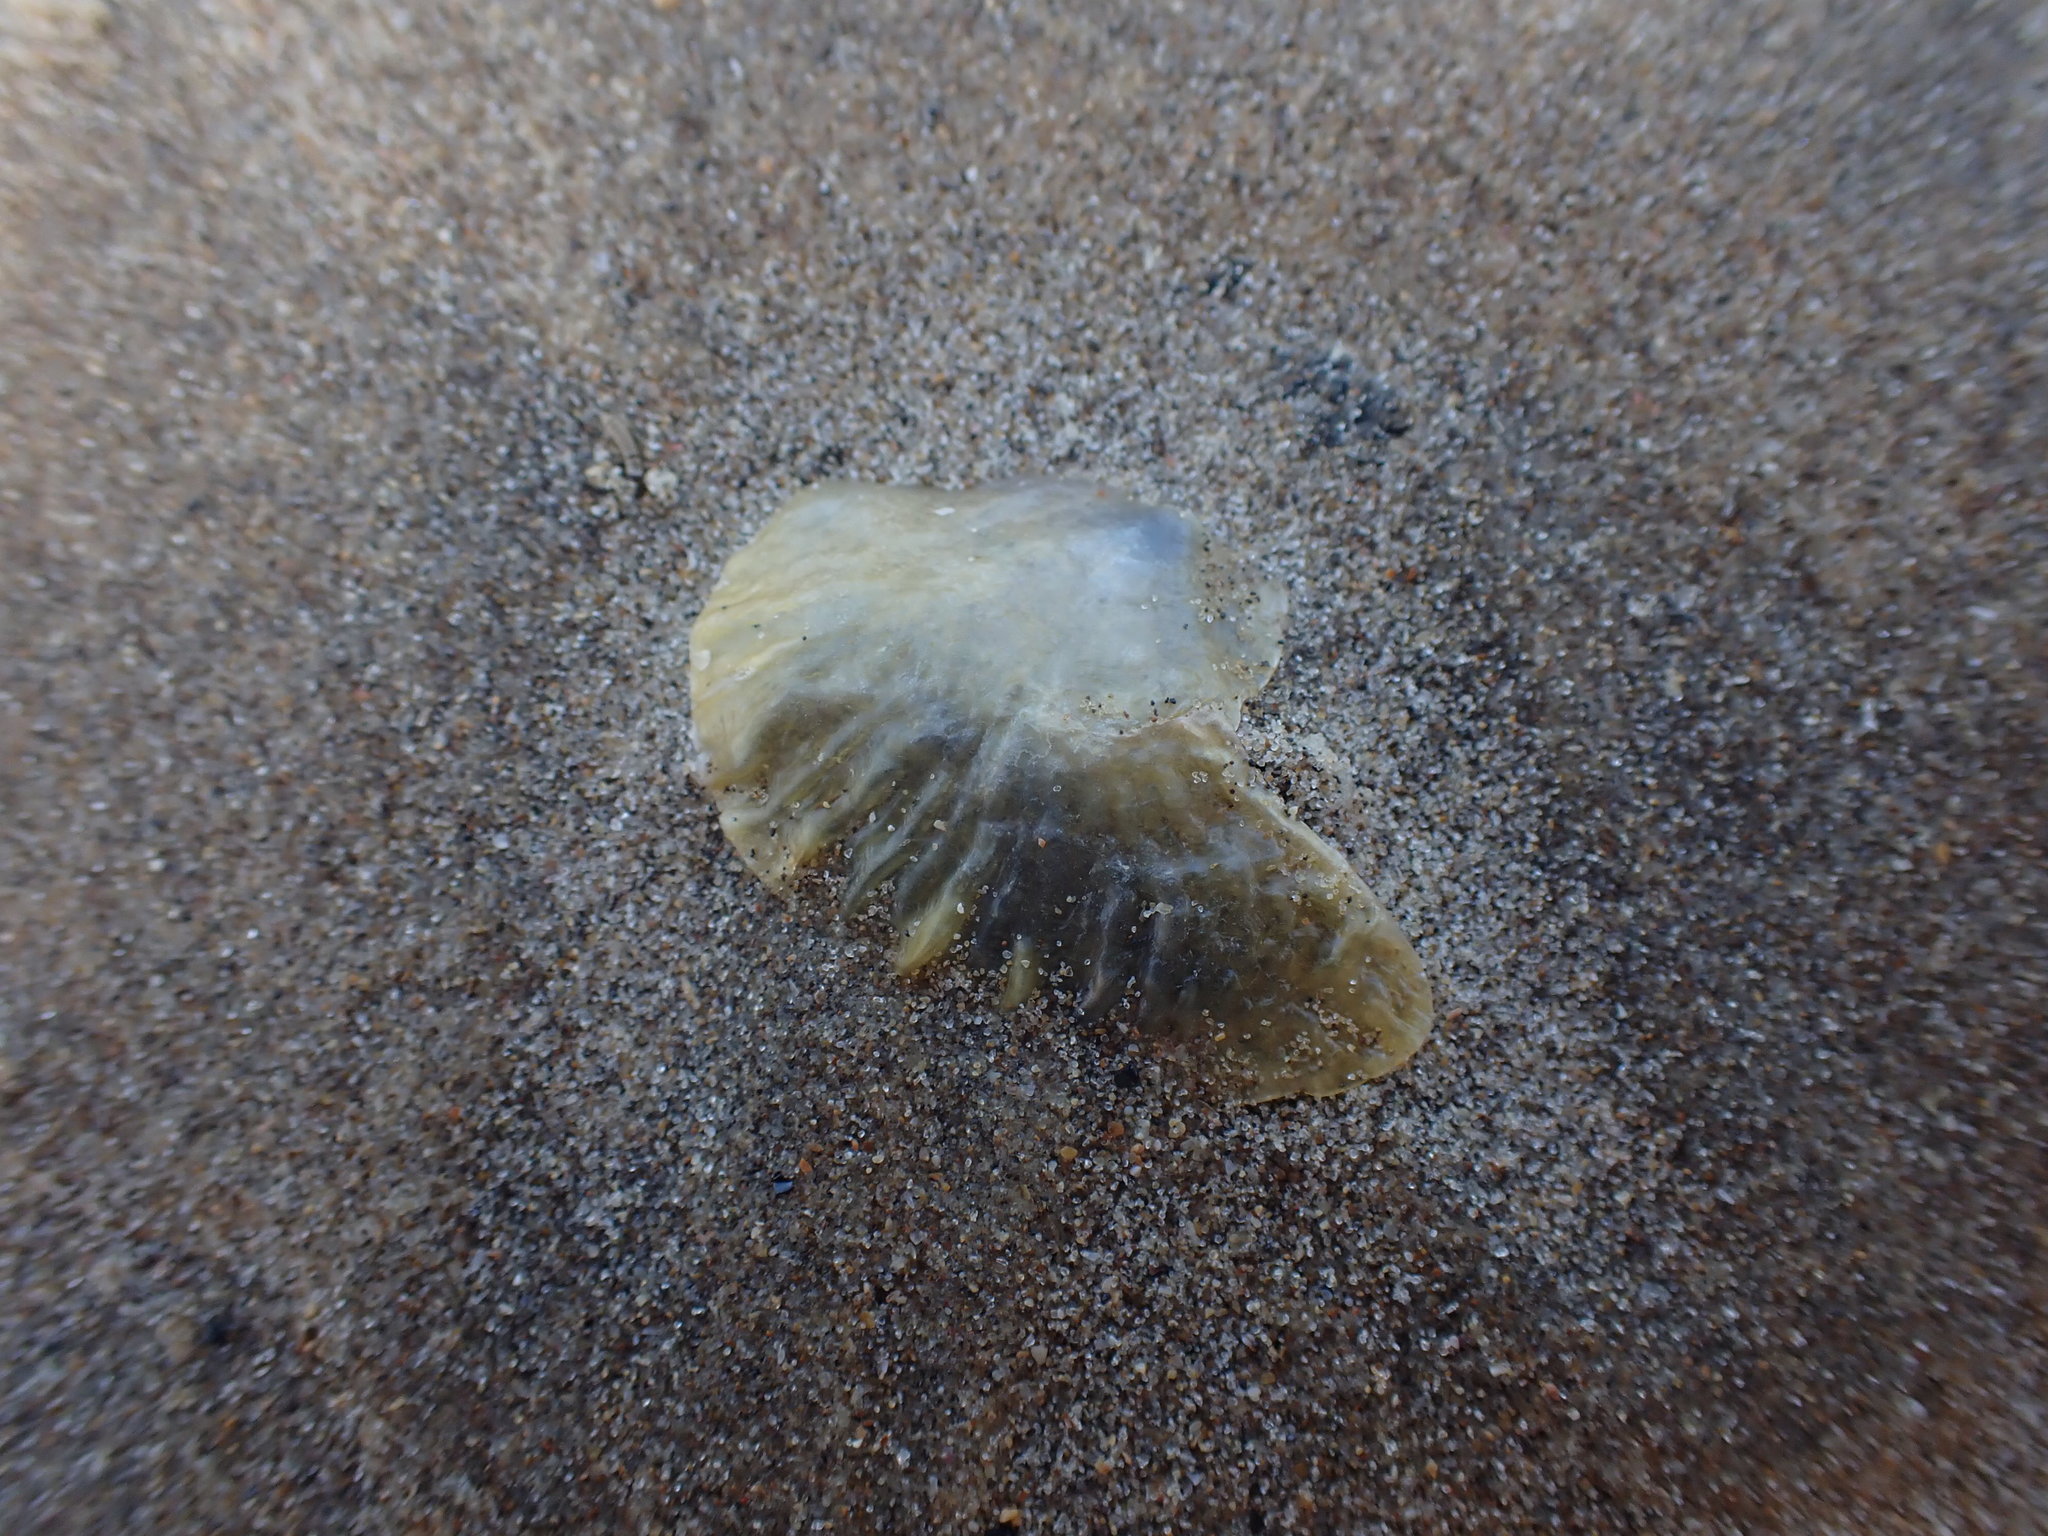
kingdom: Animalia
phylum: Mollusca
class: Bivalvia
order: Pectinida
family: Anomiidae
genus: Anomia
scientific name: Anomia trigonopsis
